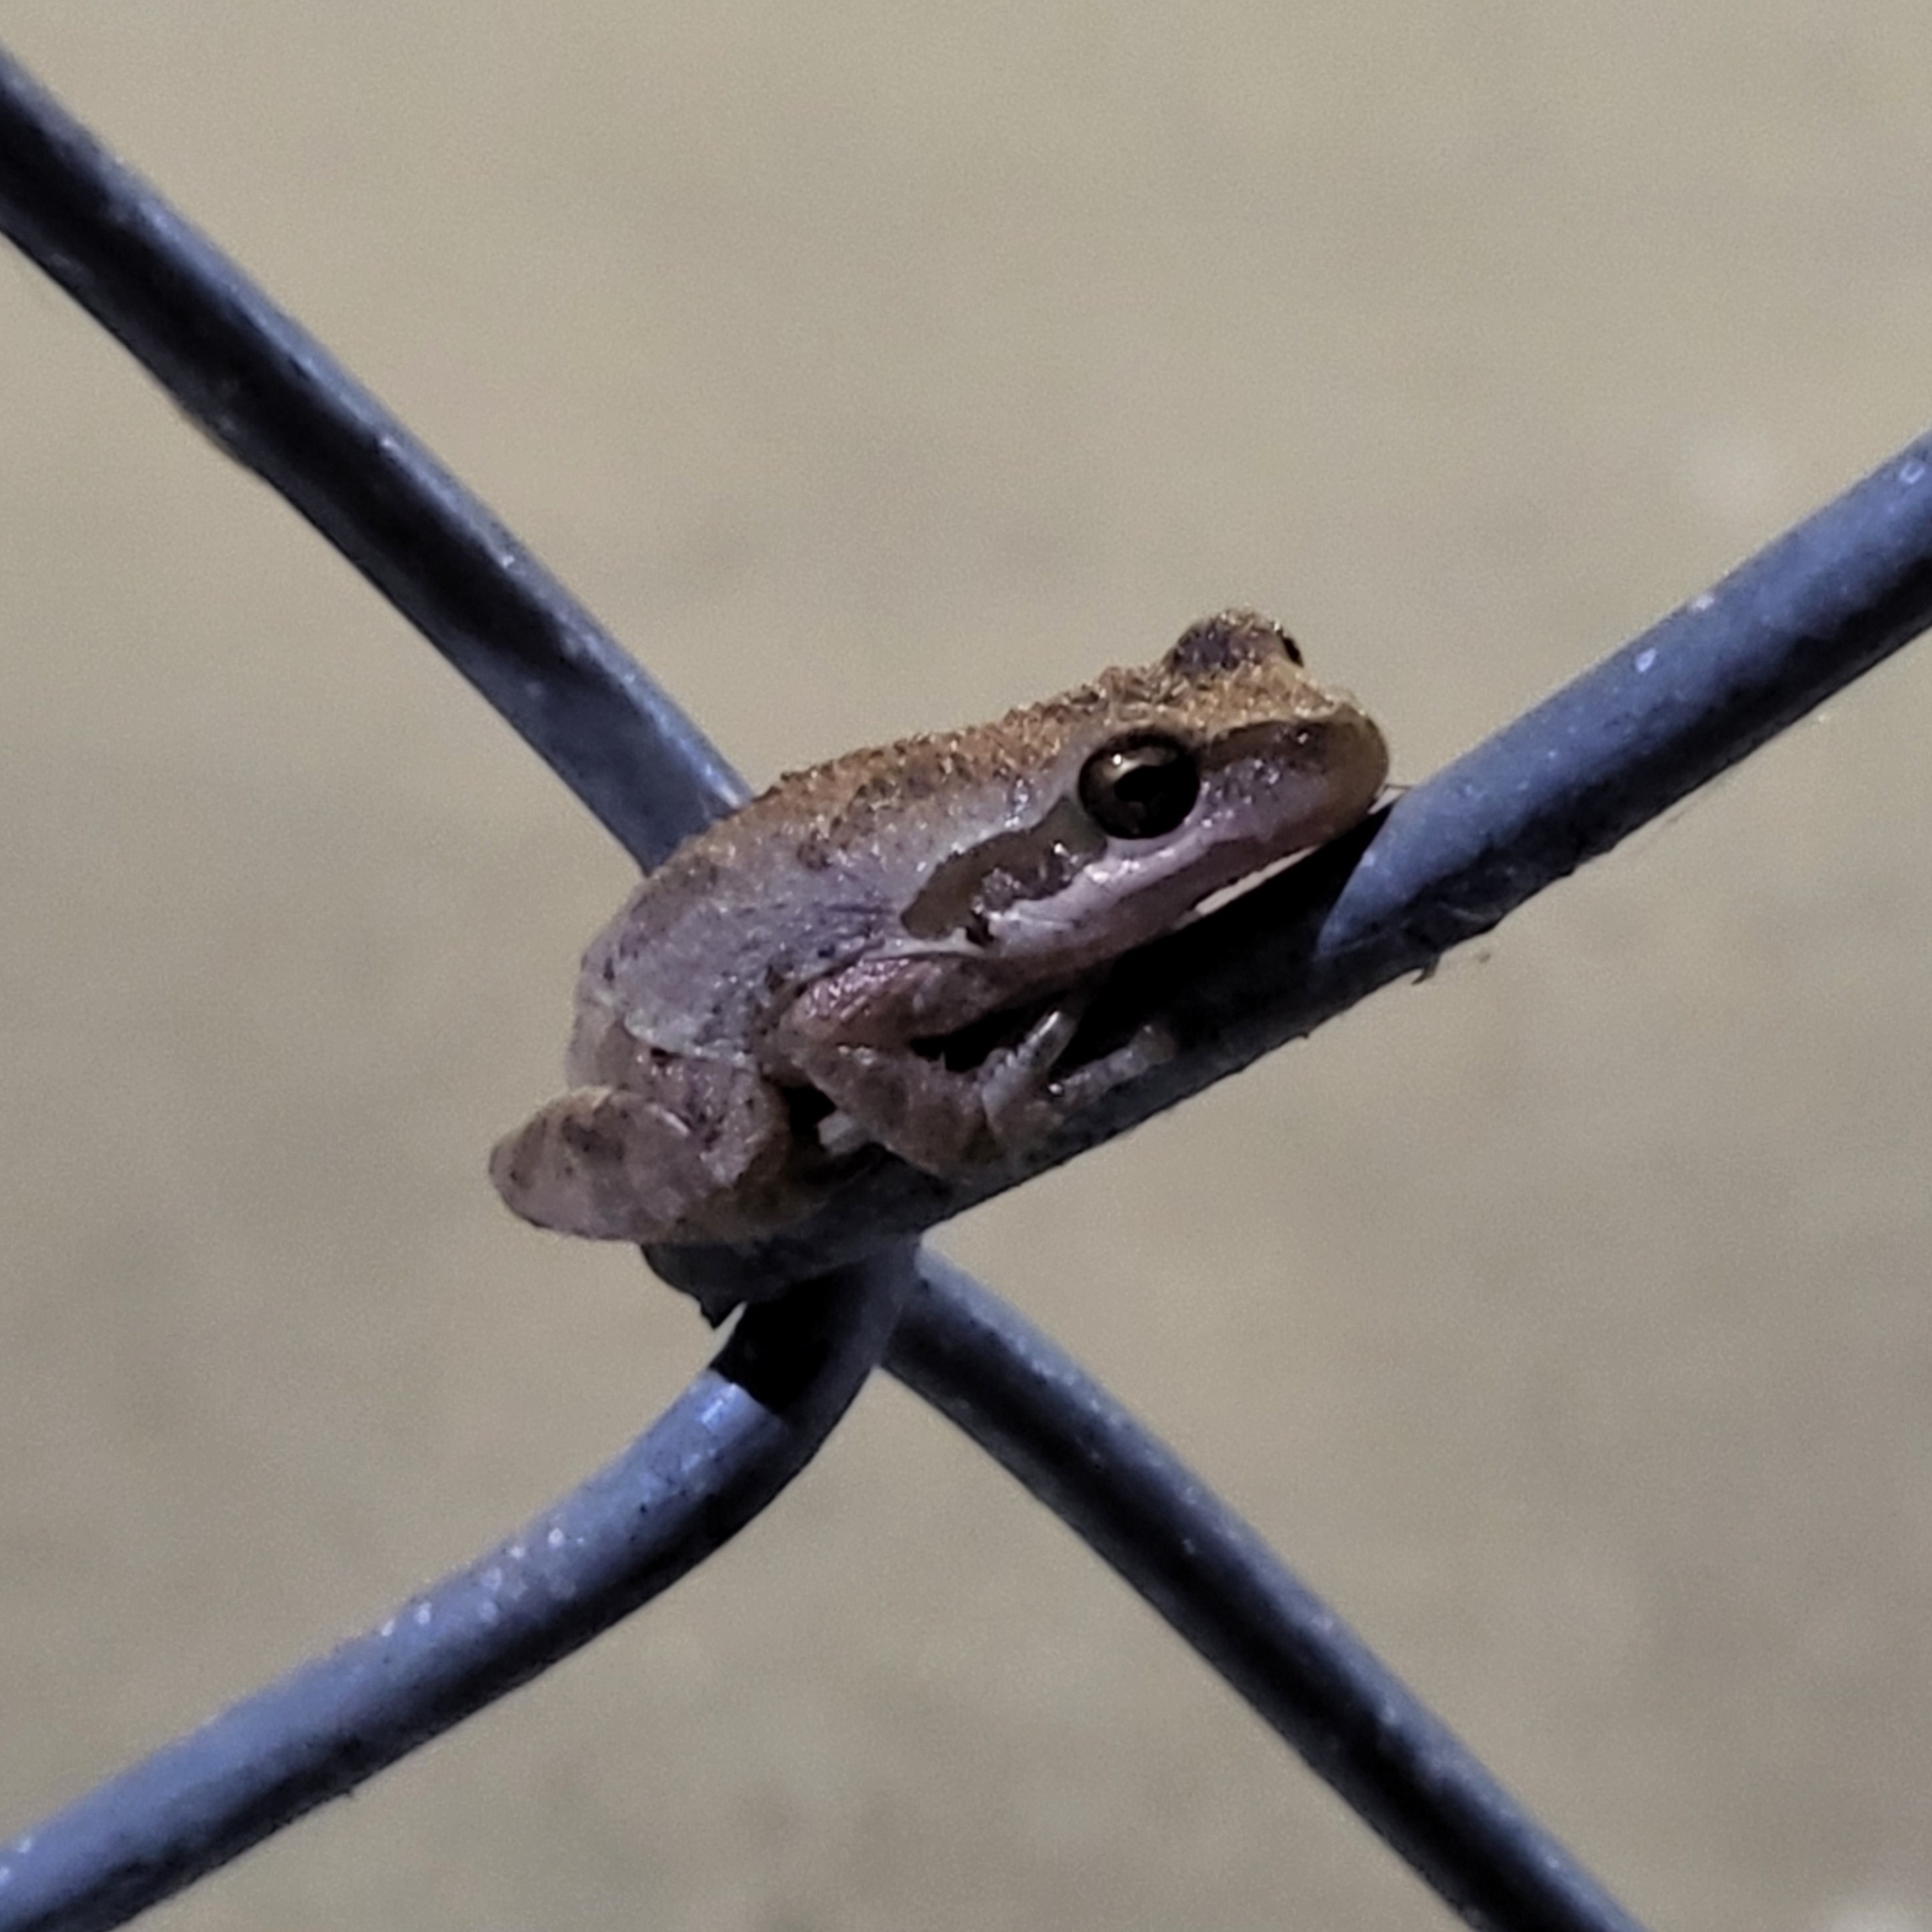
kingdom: Animalia
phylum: Chordata
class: Amphibia
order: Anura
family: Hylidae
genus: Pseudacris
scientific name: Pseudacris regilla
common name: Pacific chorus frog
